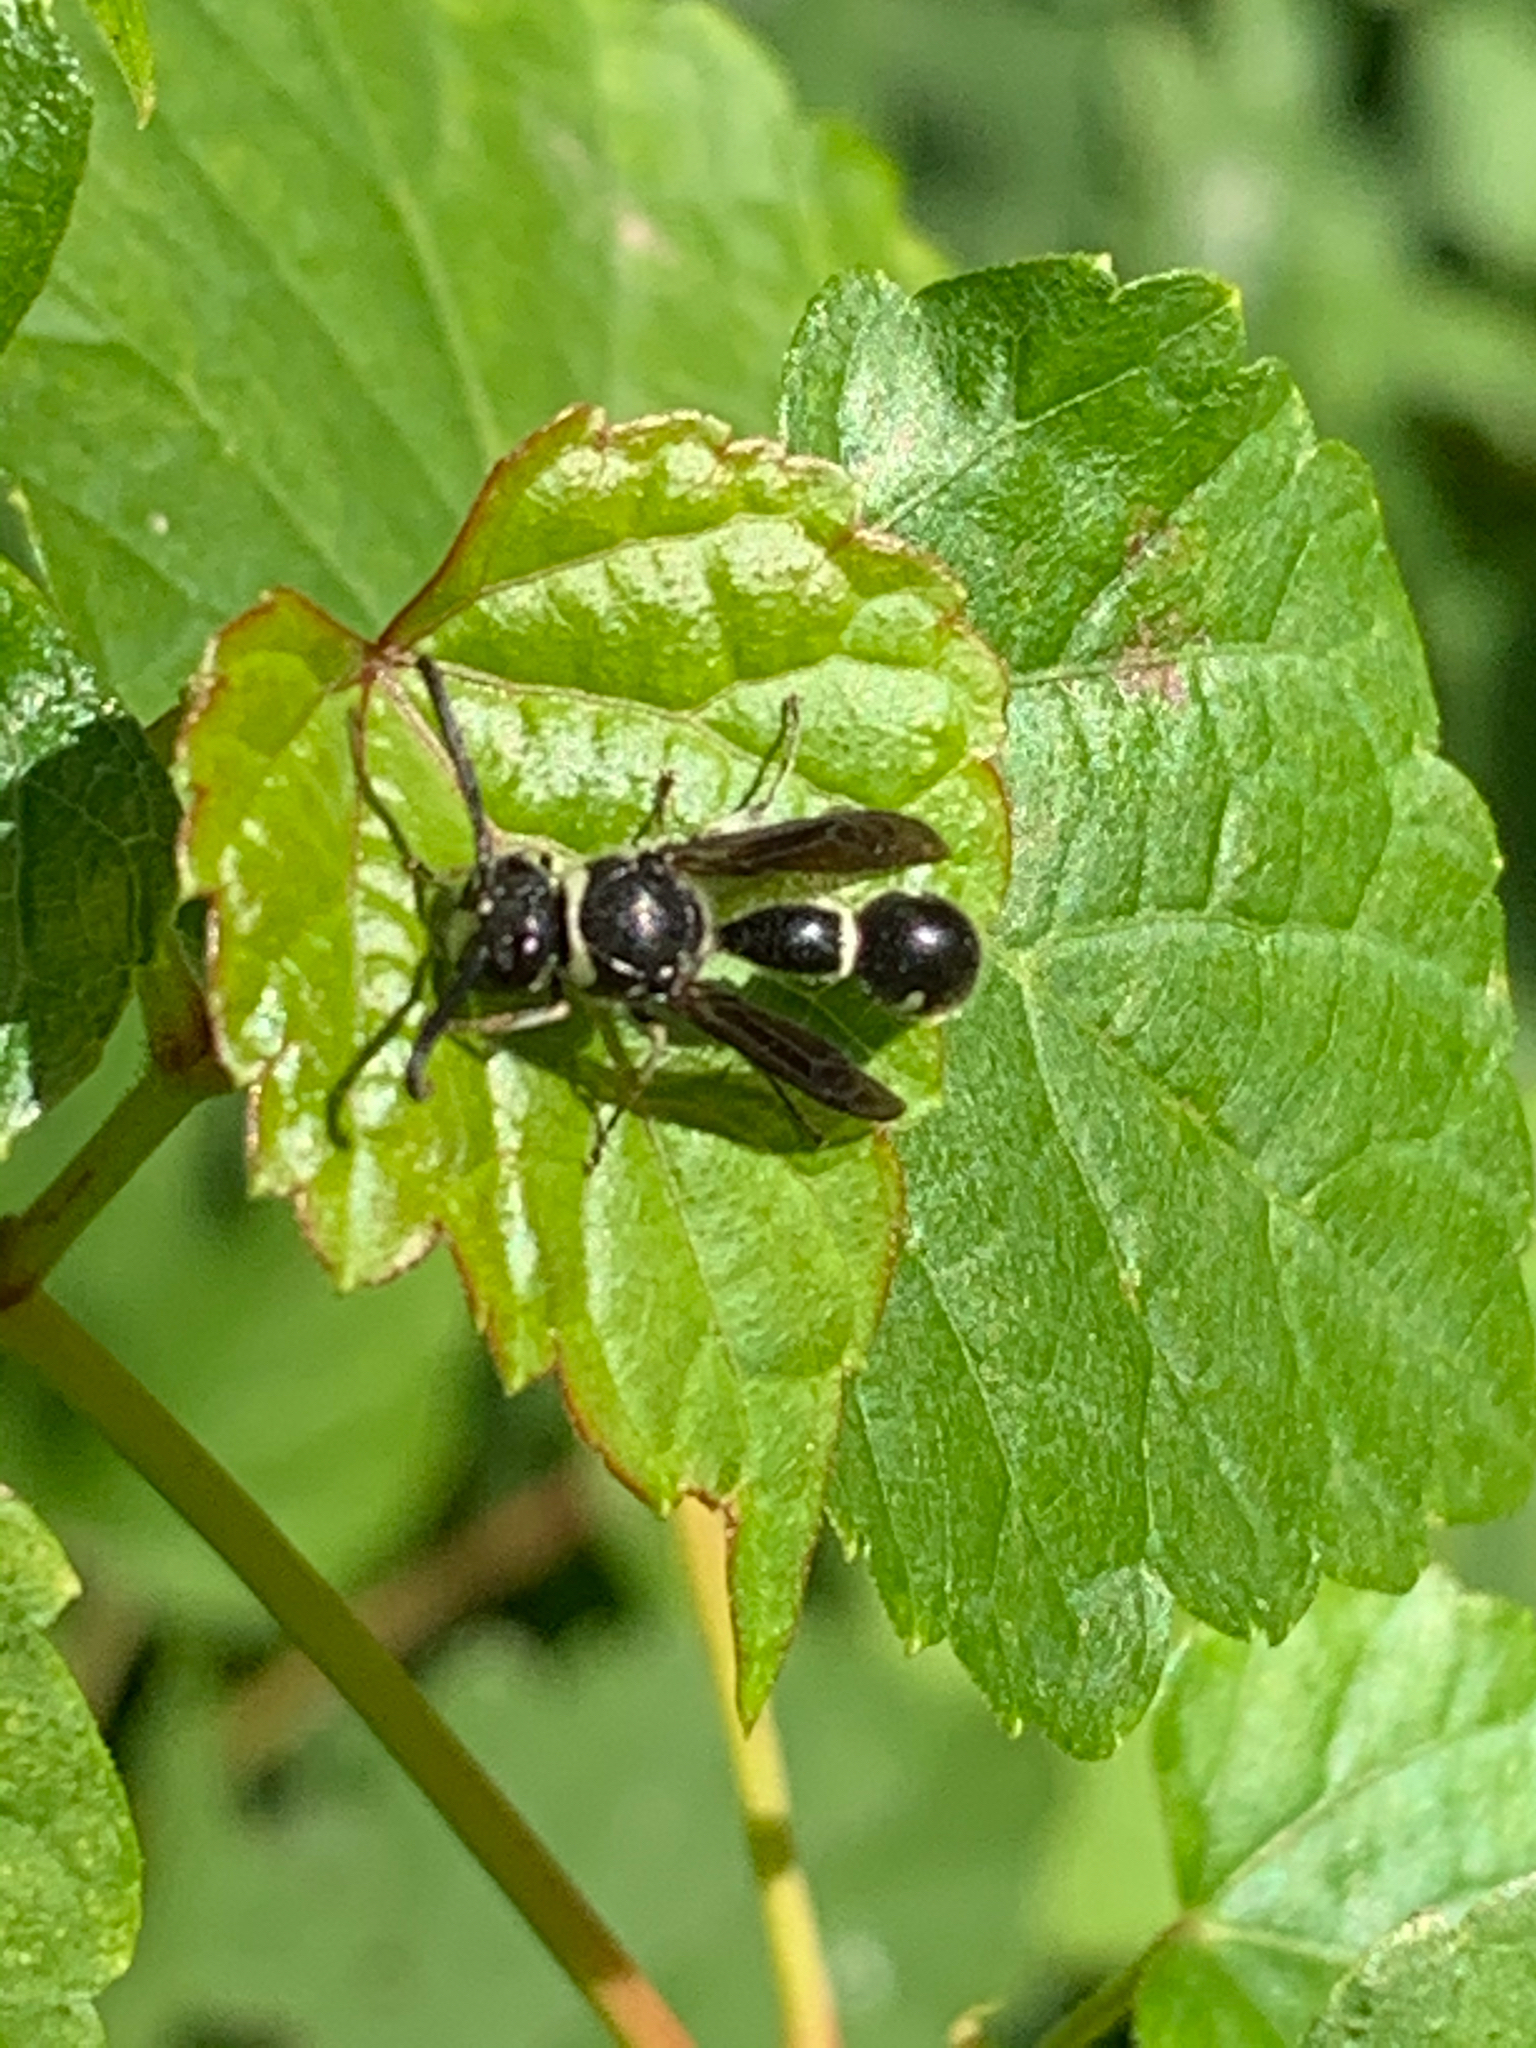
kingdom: Animalia
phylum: Arthropoda
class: Insecta
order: Hymenoptera
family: Vespidae
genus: Eumenes
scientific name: Eumenes fraternus
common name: Fraternal potter wasp
